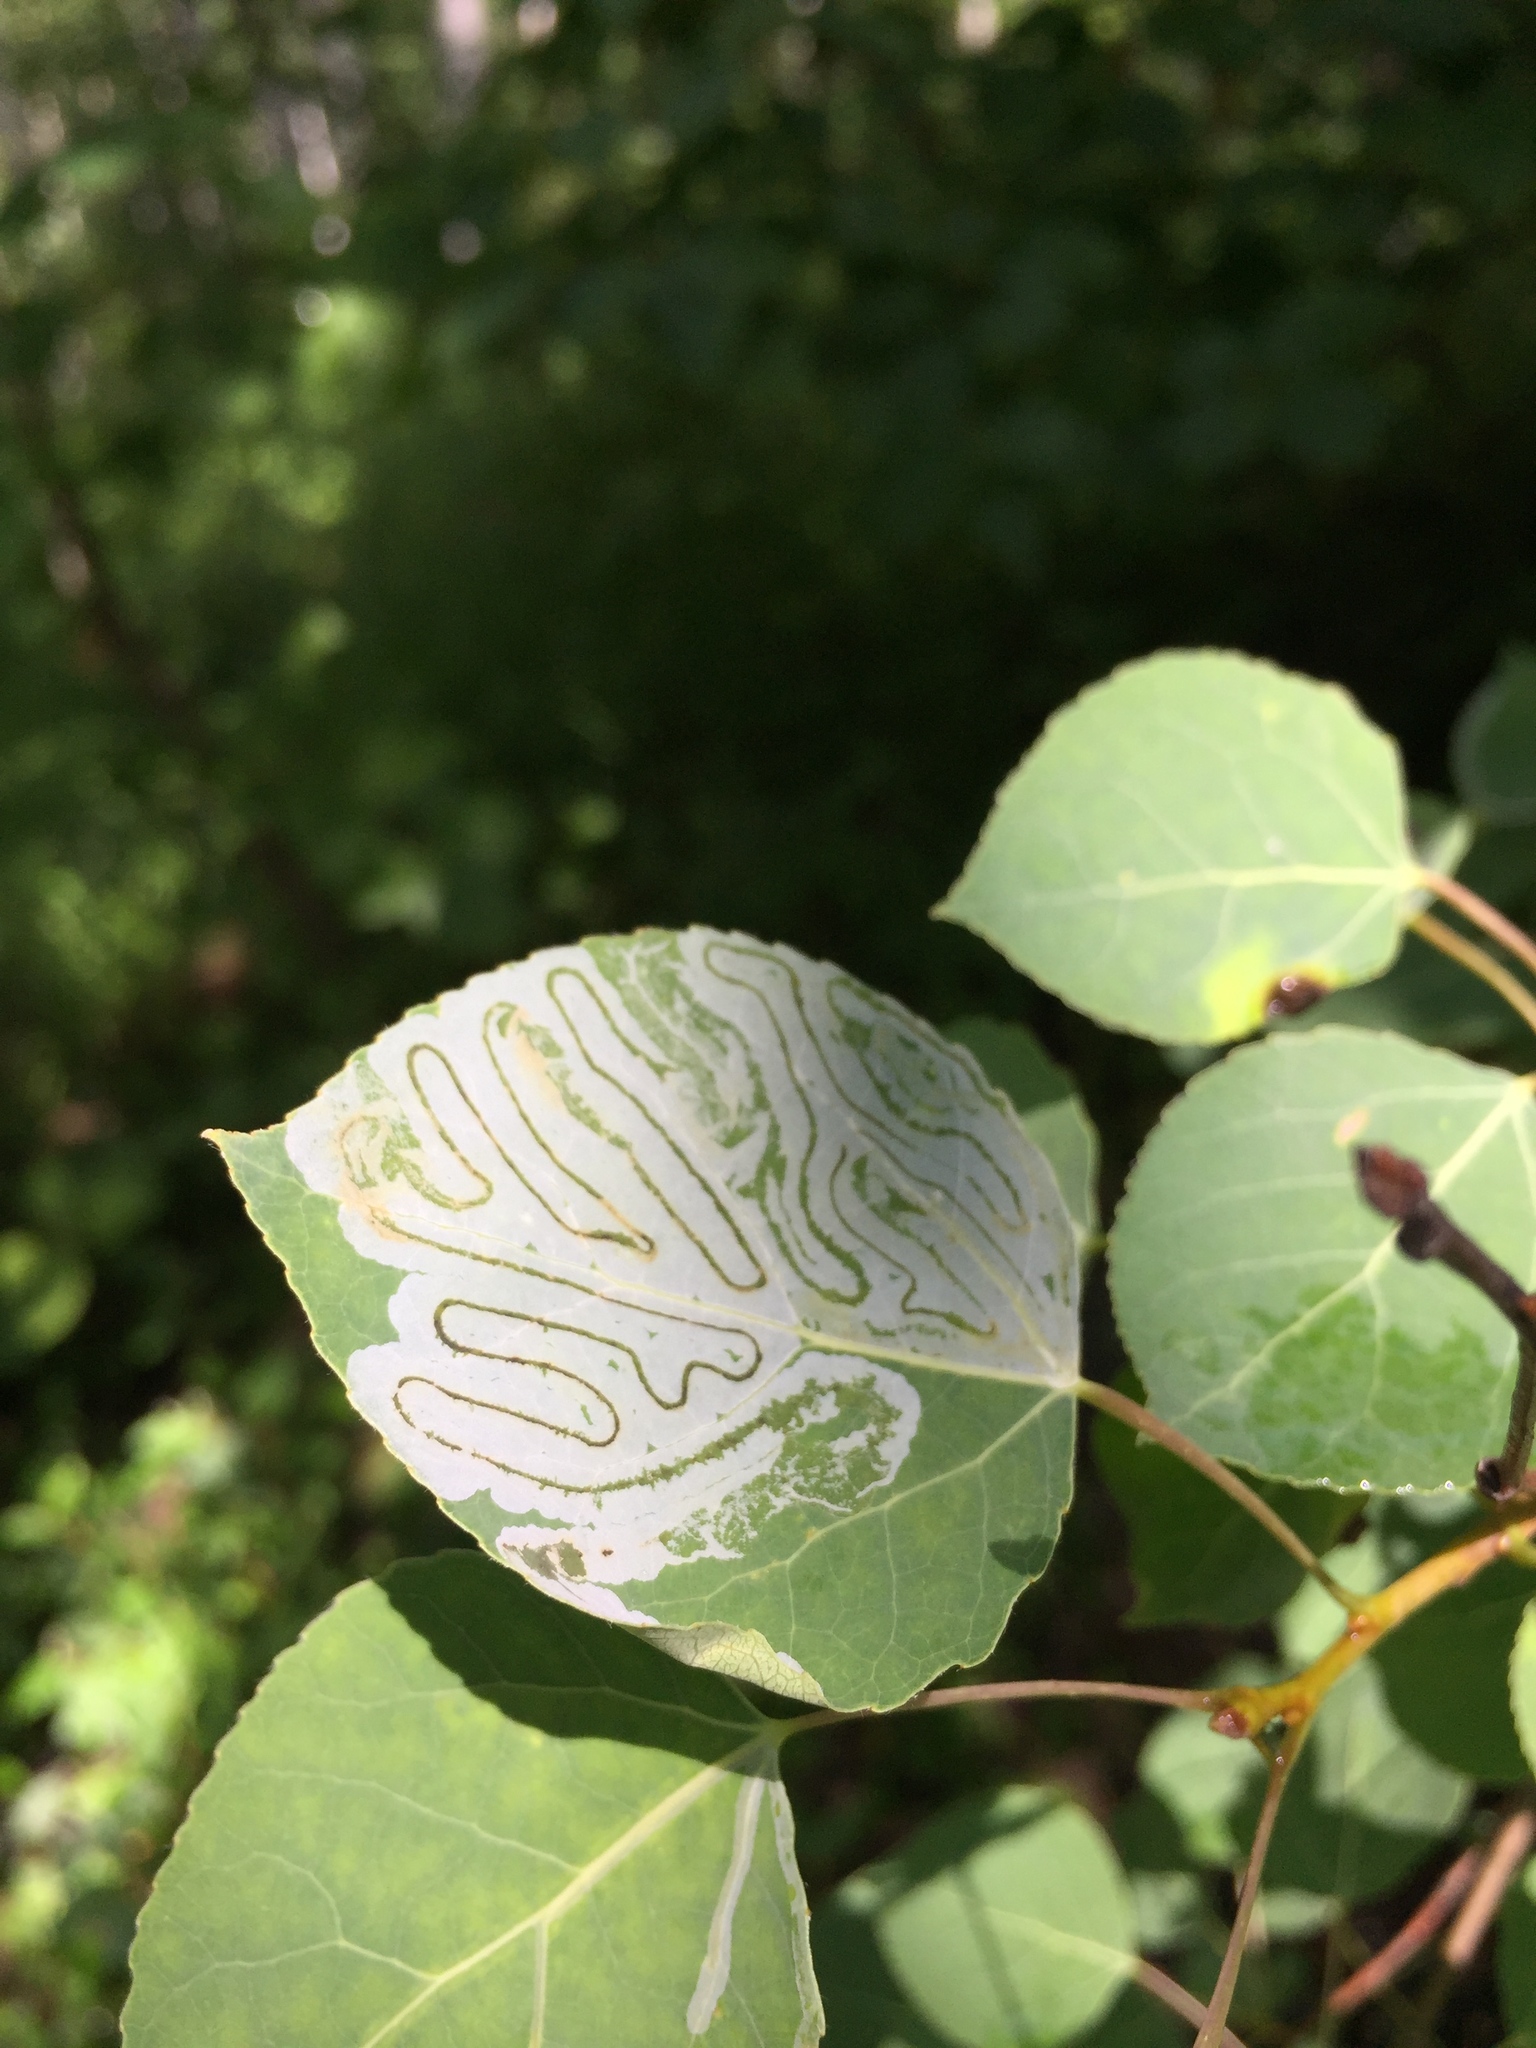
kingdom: Animalia
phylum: Arthropoda
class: Insecta
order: Lepidoptera
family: Gracillariidae
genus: Phyllocnistis
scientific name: Phyllocnistis populiella
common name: Aspen serpentine leafminer moth
